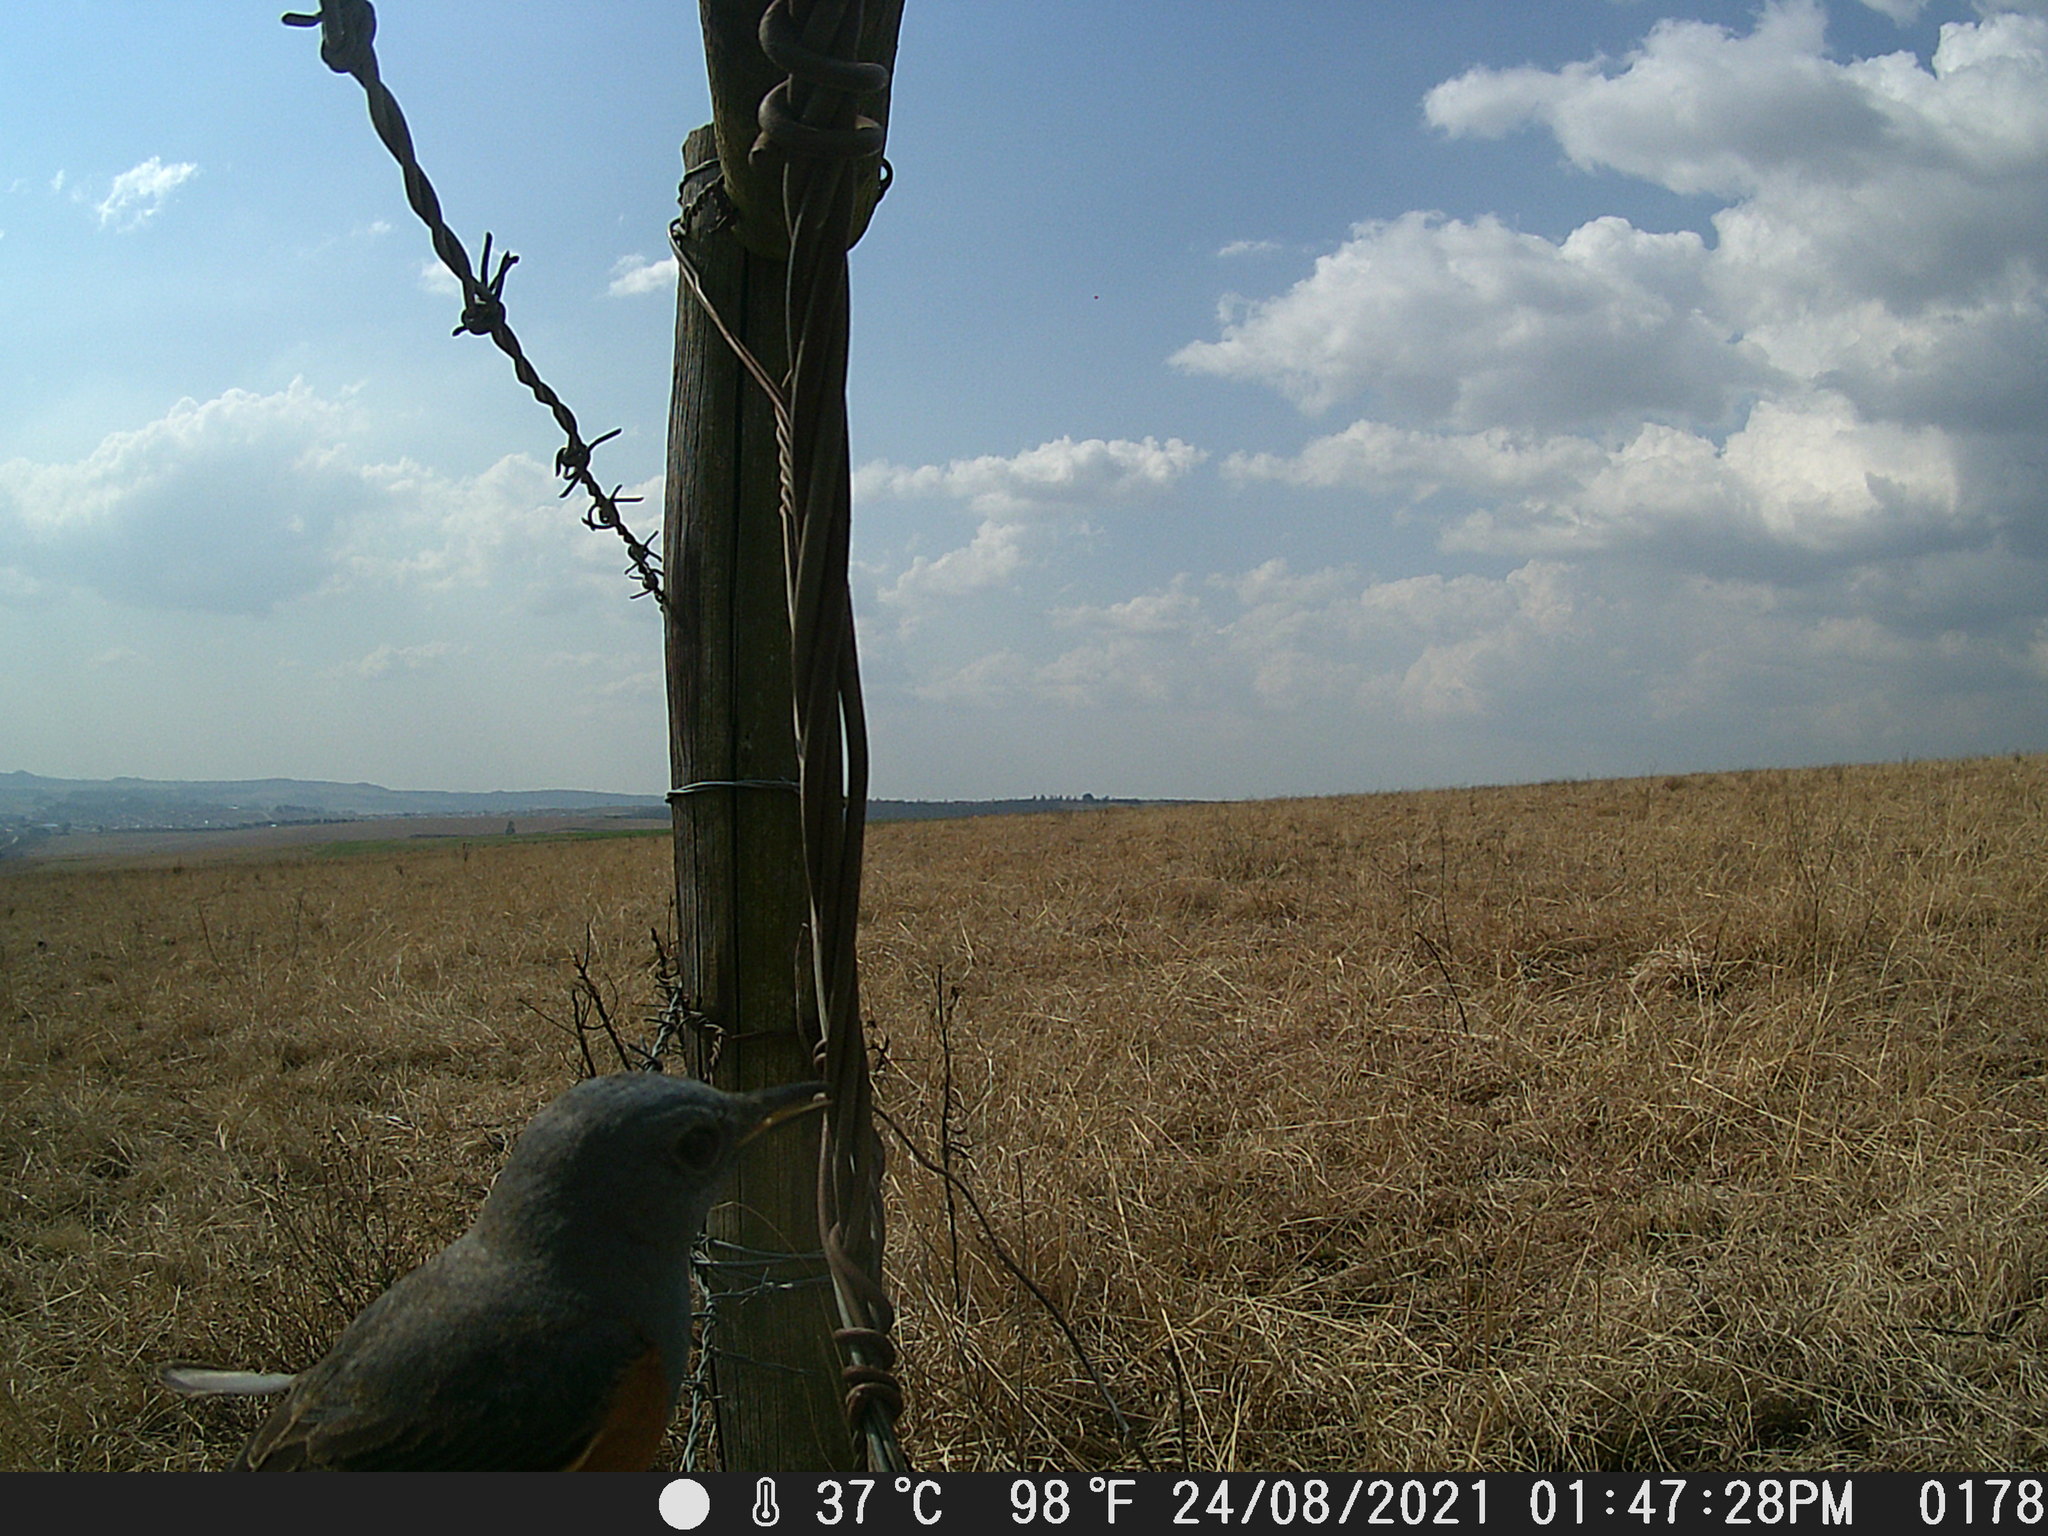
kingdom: Animalia
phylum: Chordata
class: Aves
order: Passeriformes
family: Muscicapidae
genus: Monticola
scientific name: Monticola explorator
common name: Sentinel rock thrush
